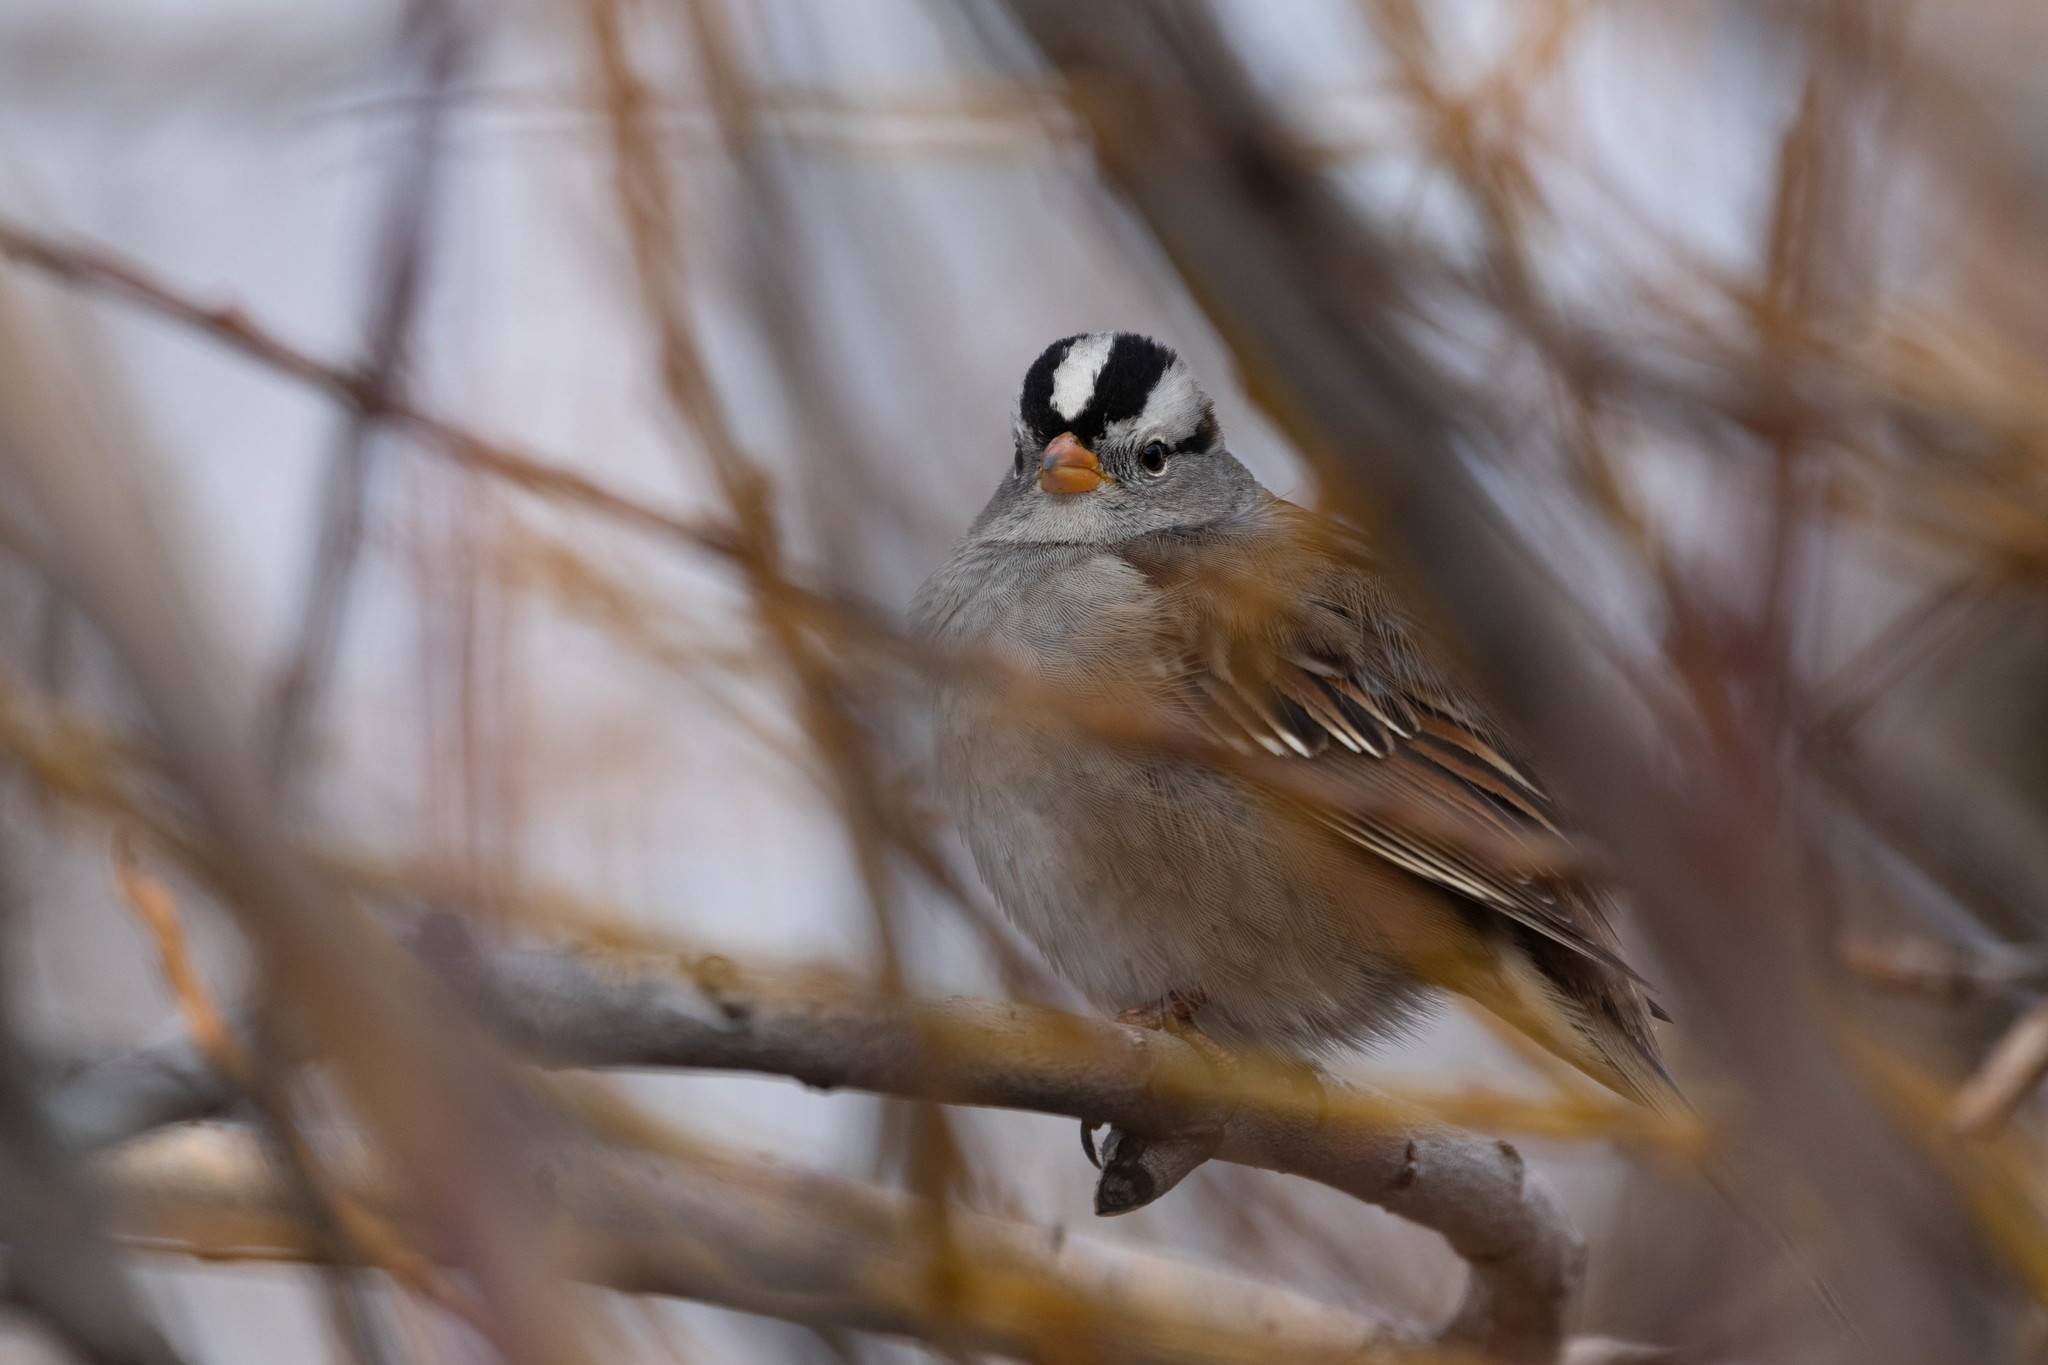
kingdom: Animalia
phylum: Chordata
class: Aves
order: Passeriformes
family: Passerellidae
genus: Zonotrichia
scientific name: Zonotrichia leucophrys
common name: White-crowned sparrow
